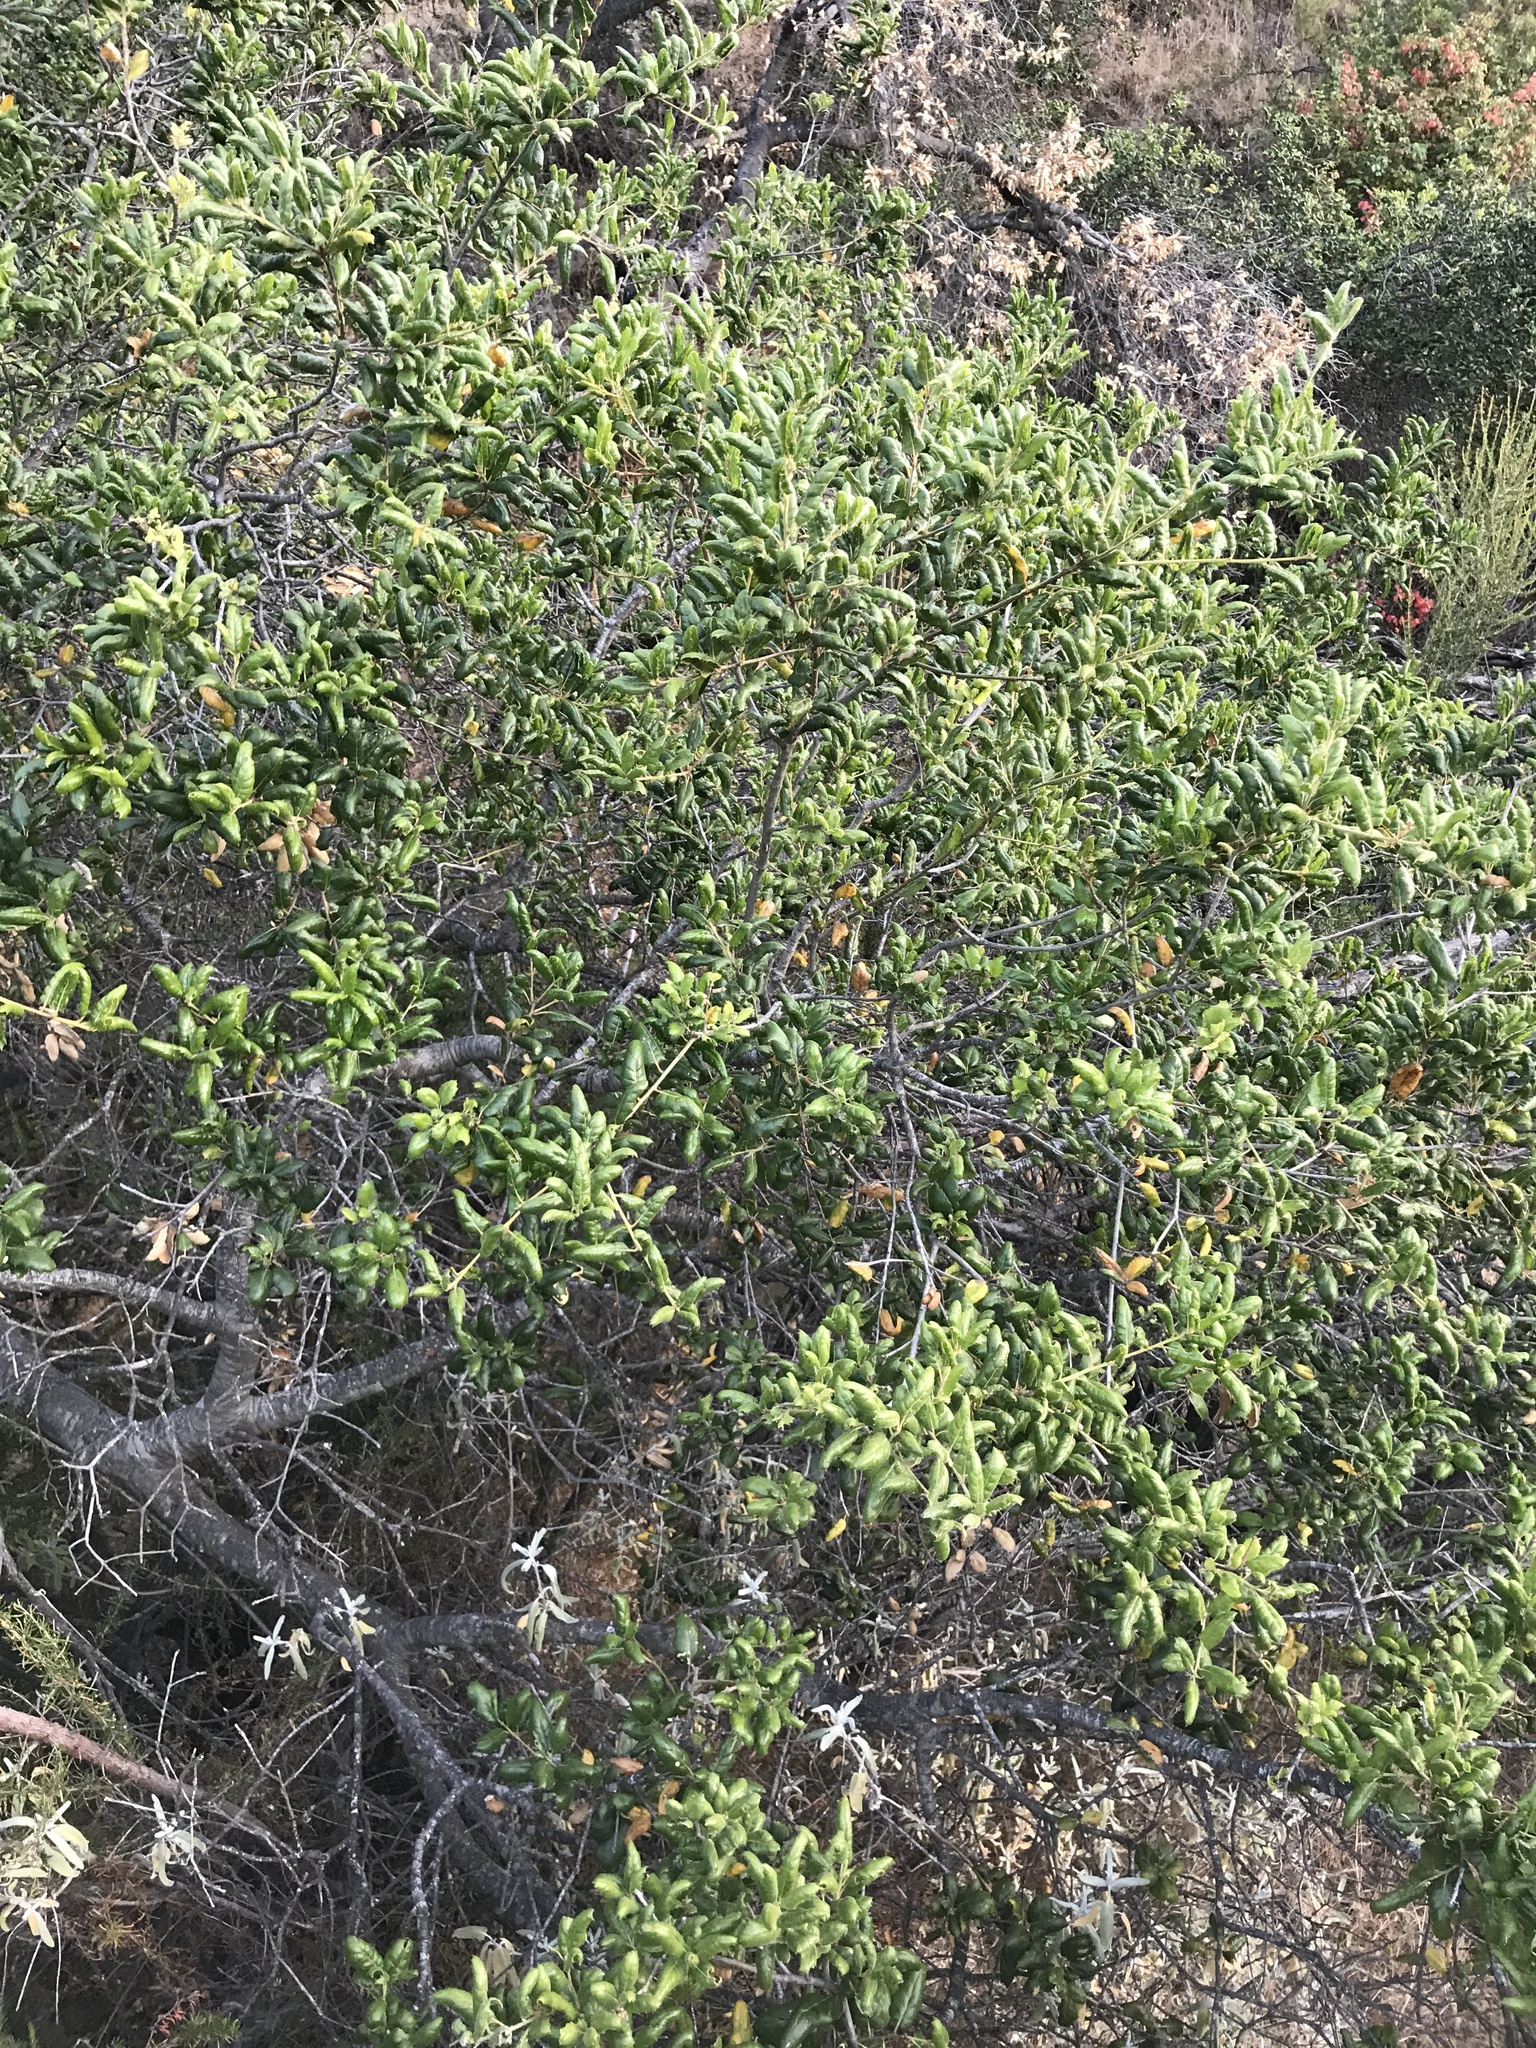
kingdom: Plantae
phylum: Tracheophyta
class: Magnoliopsida
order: Fagales
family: Fagaceae
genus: Quercus
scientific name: Quercus agrifolia
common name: California live oak
